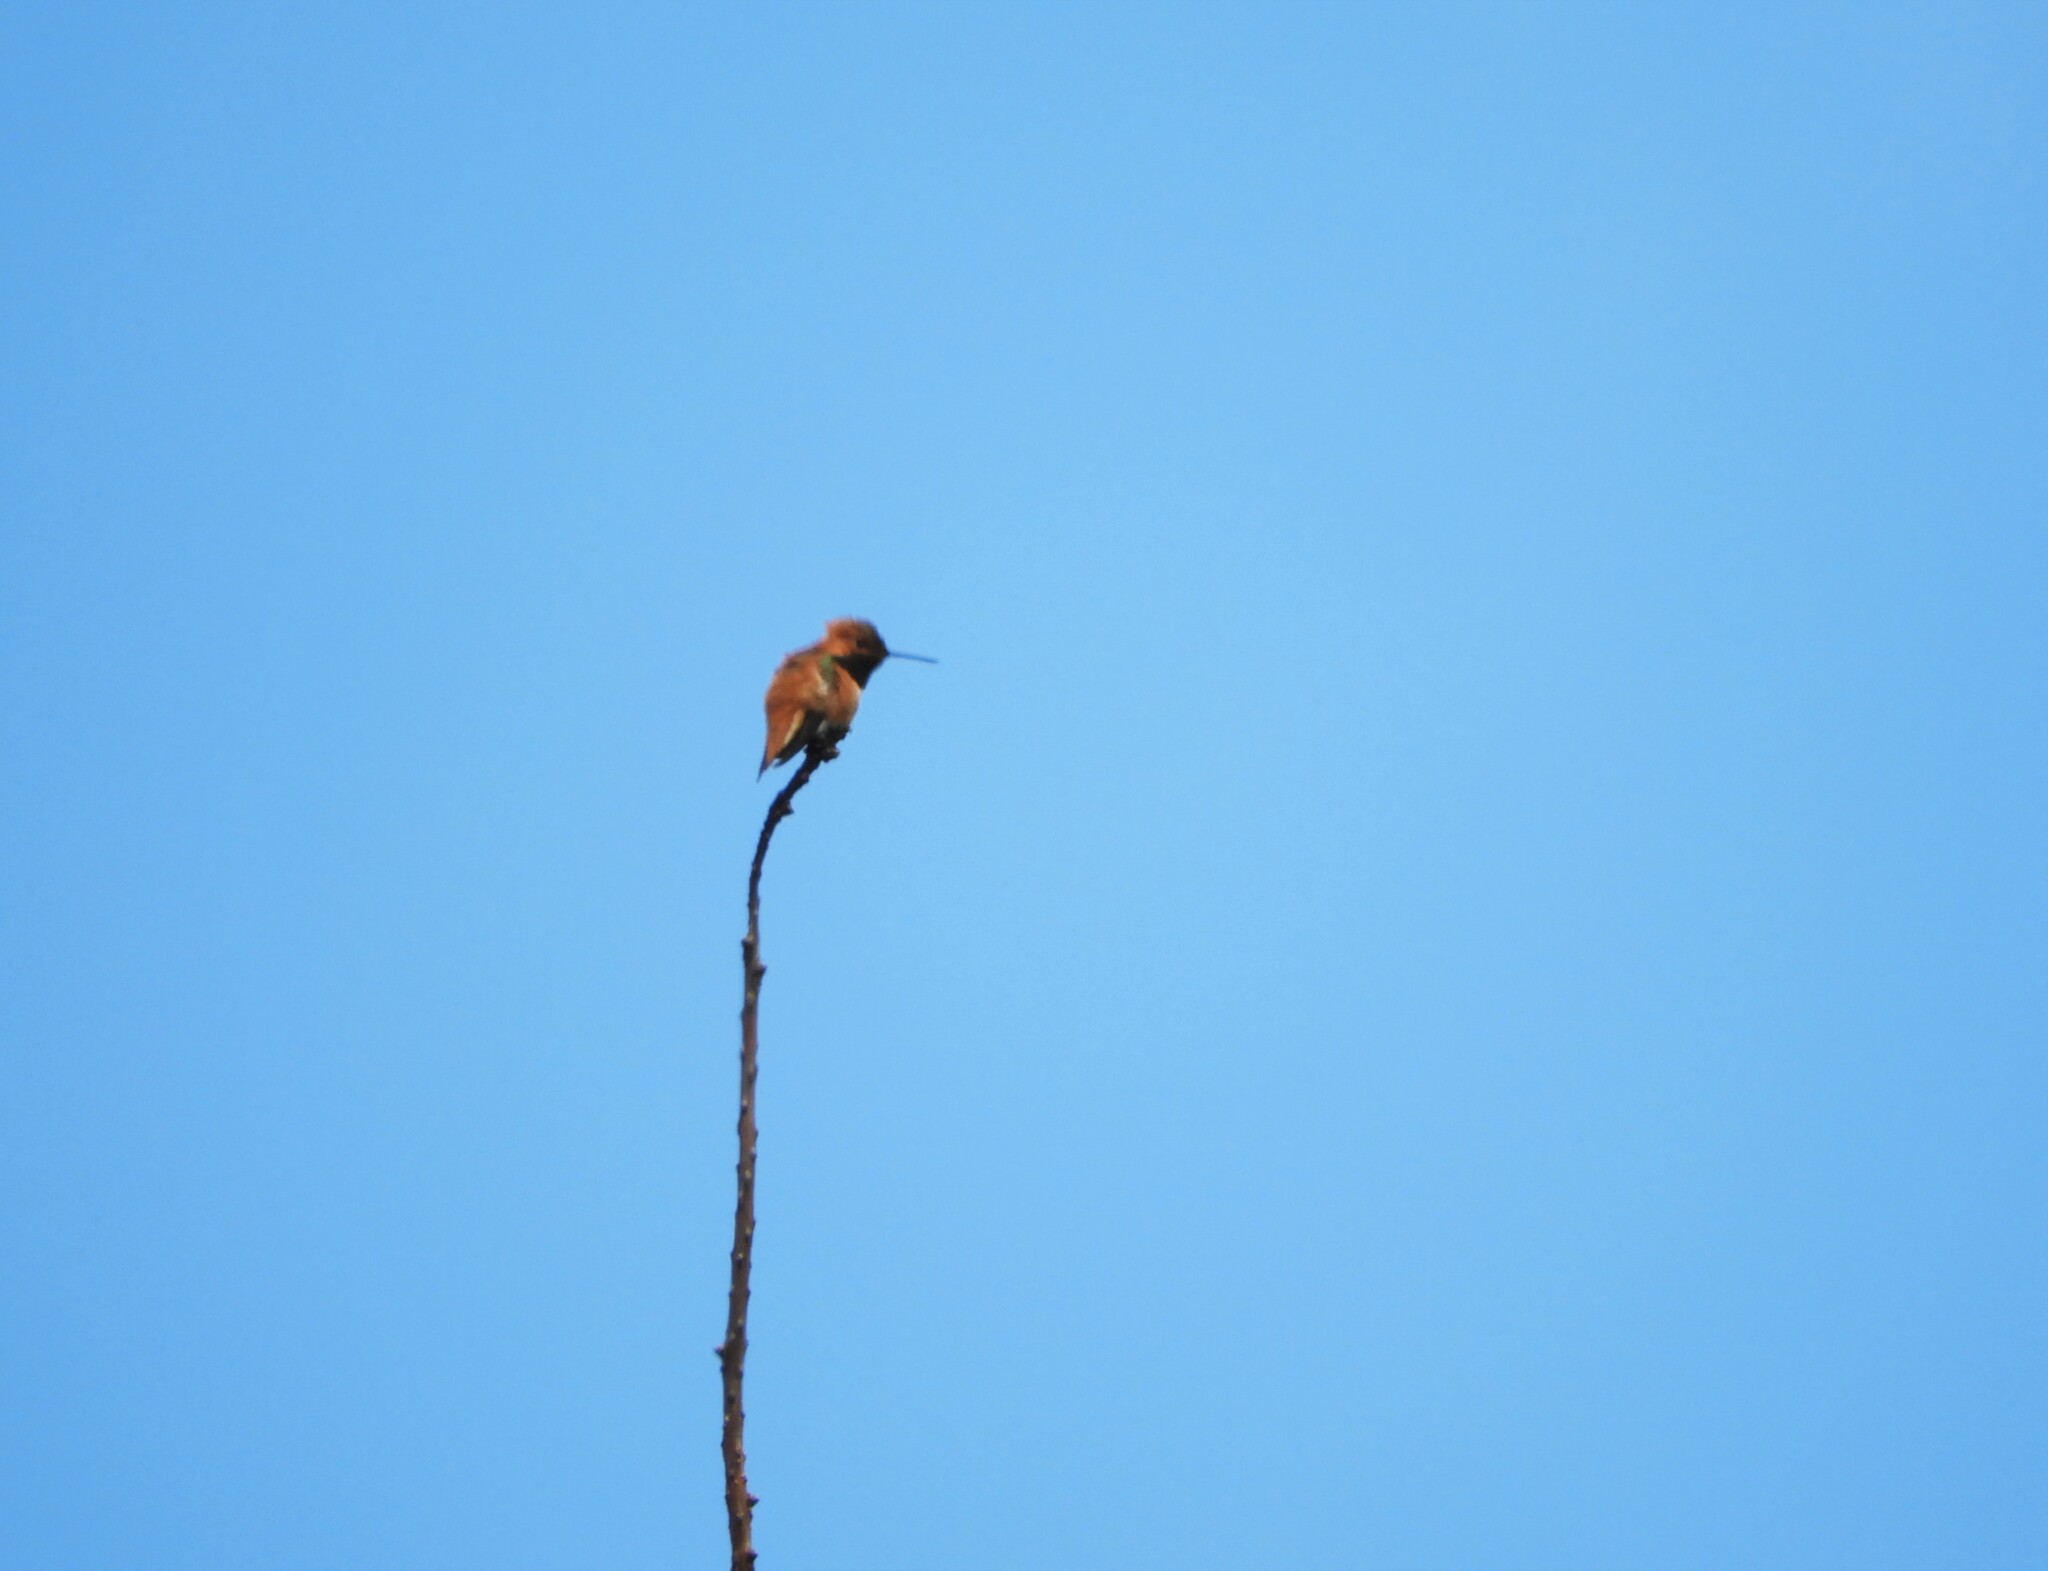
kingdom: Animalia
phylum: Chordata
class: Aves
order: Apodiformes
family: Trochilidae
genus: Selasphorus
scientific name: Selasphorus rufus
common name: Rufous hummingbird
